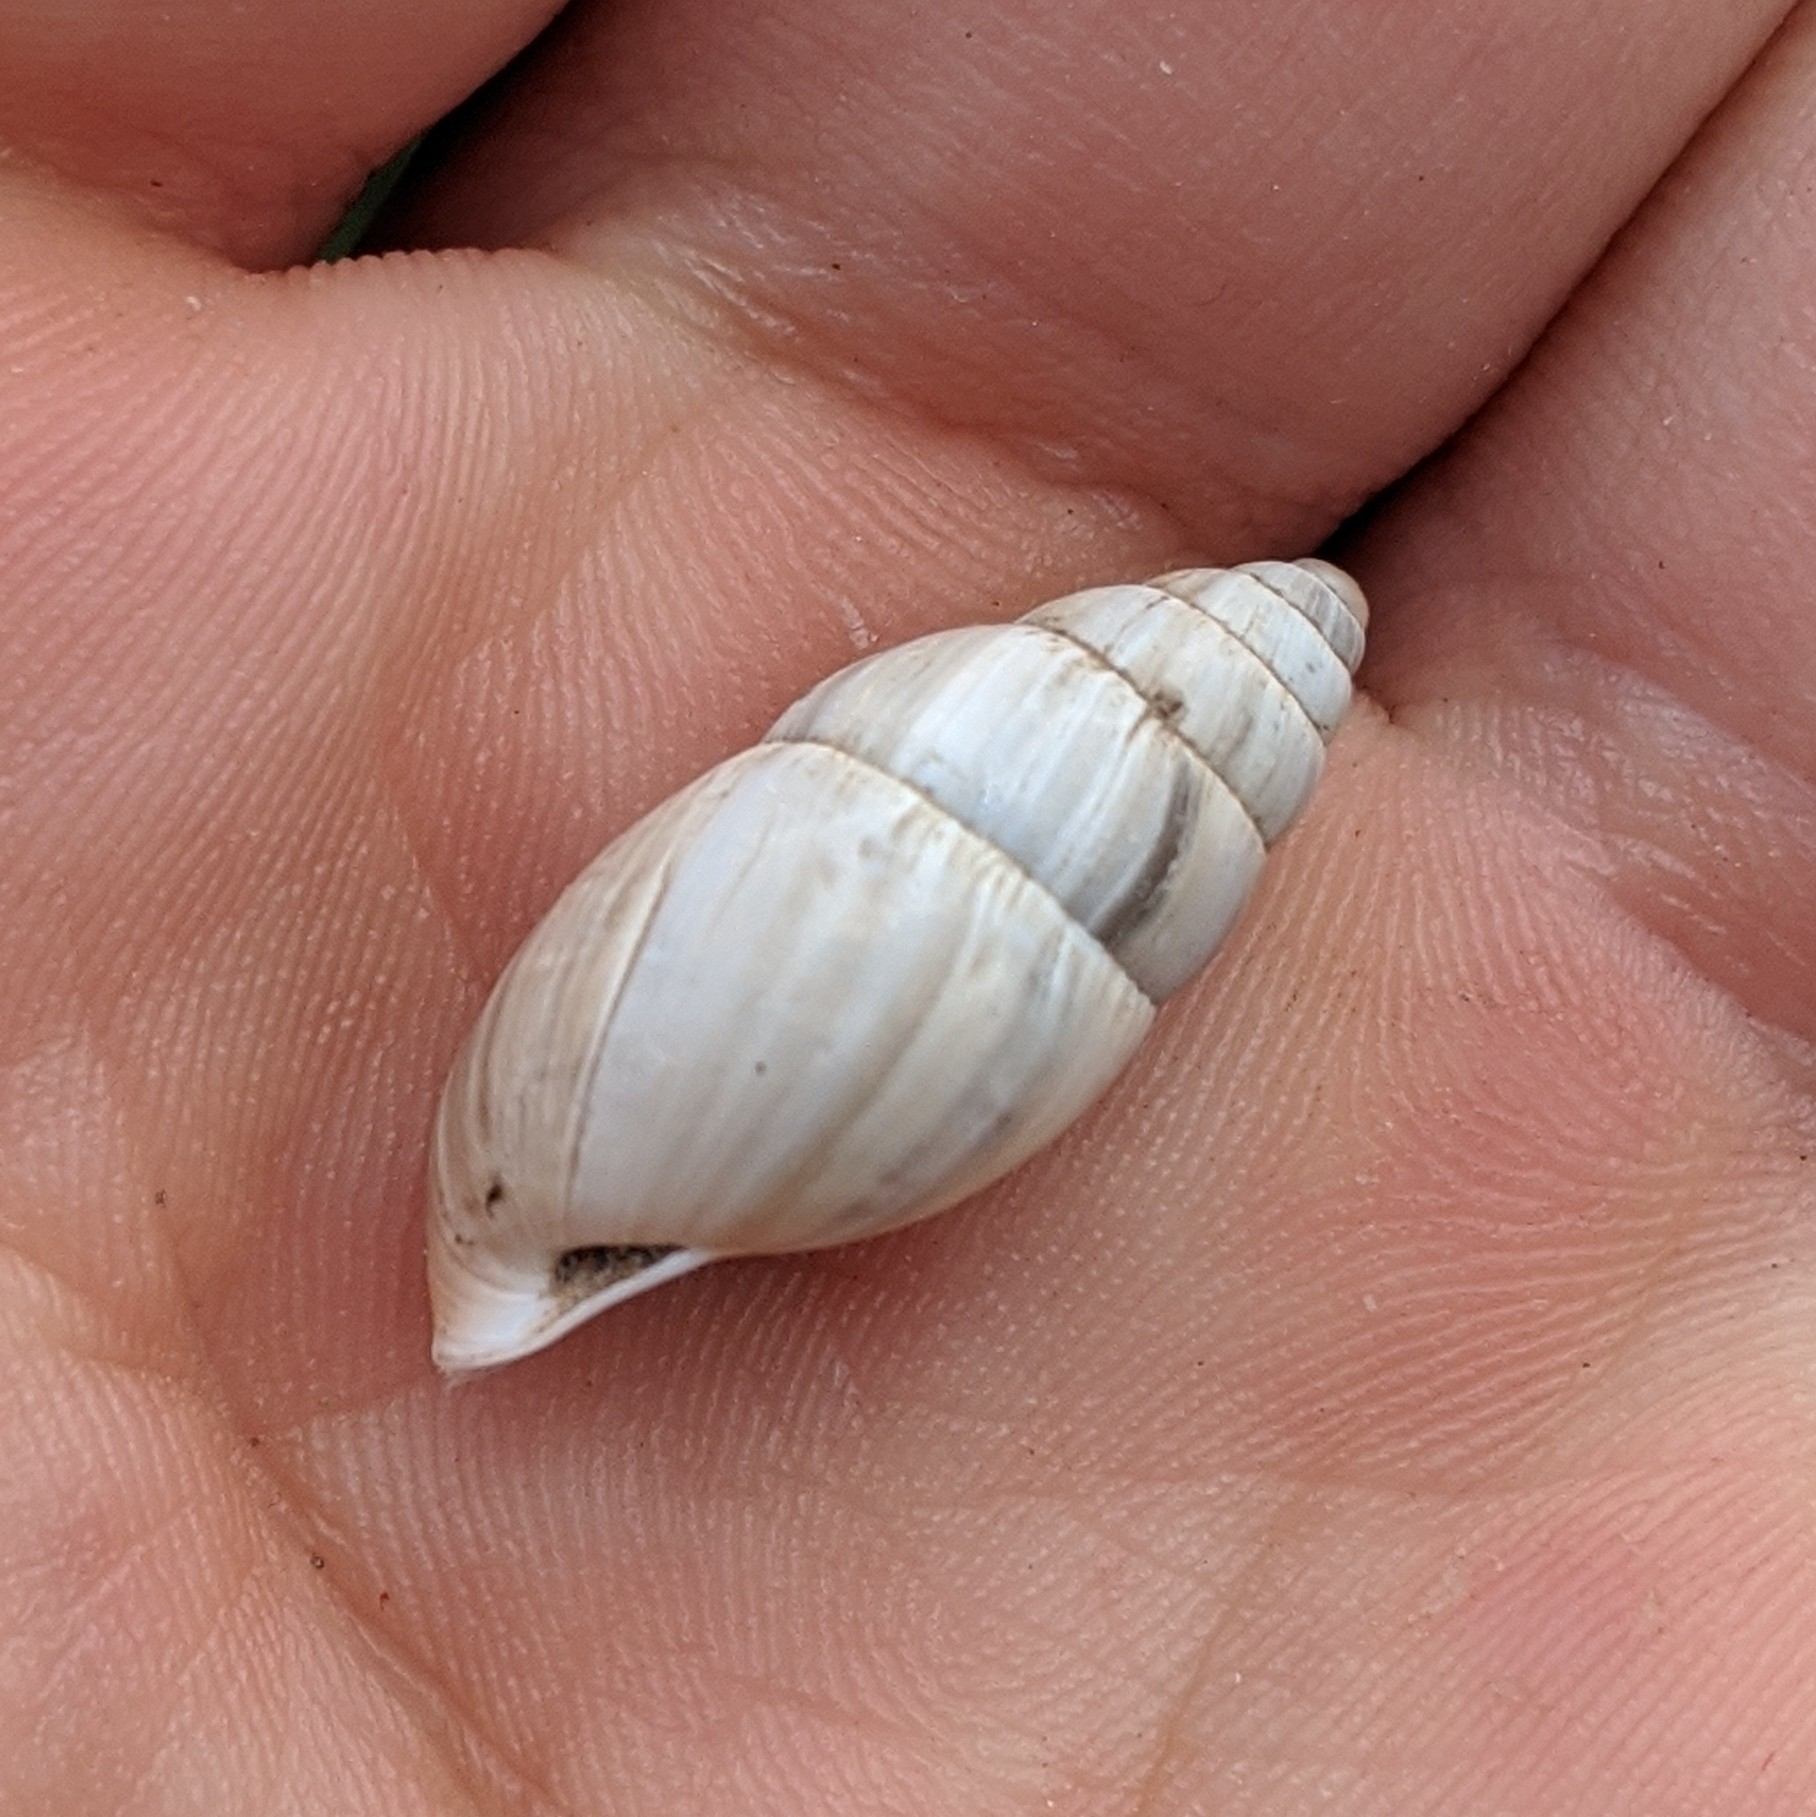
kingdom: Animalia
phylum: Mollusca
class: Gastropoda
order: Stylommatophora
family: Enidae
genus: Zebrina
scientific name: Zebrina detrita
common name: Large bulin
